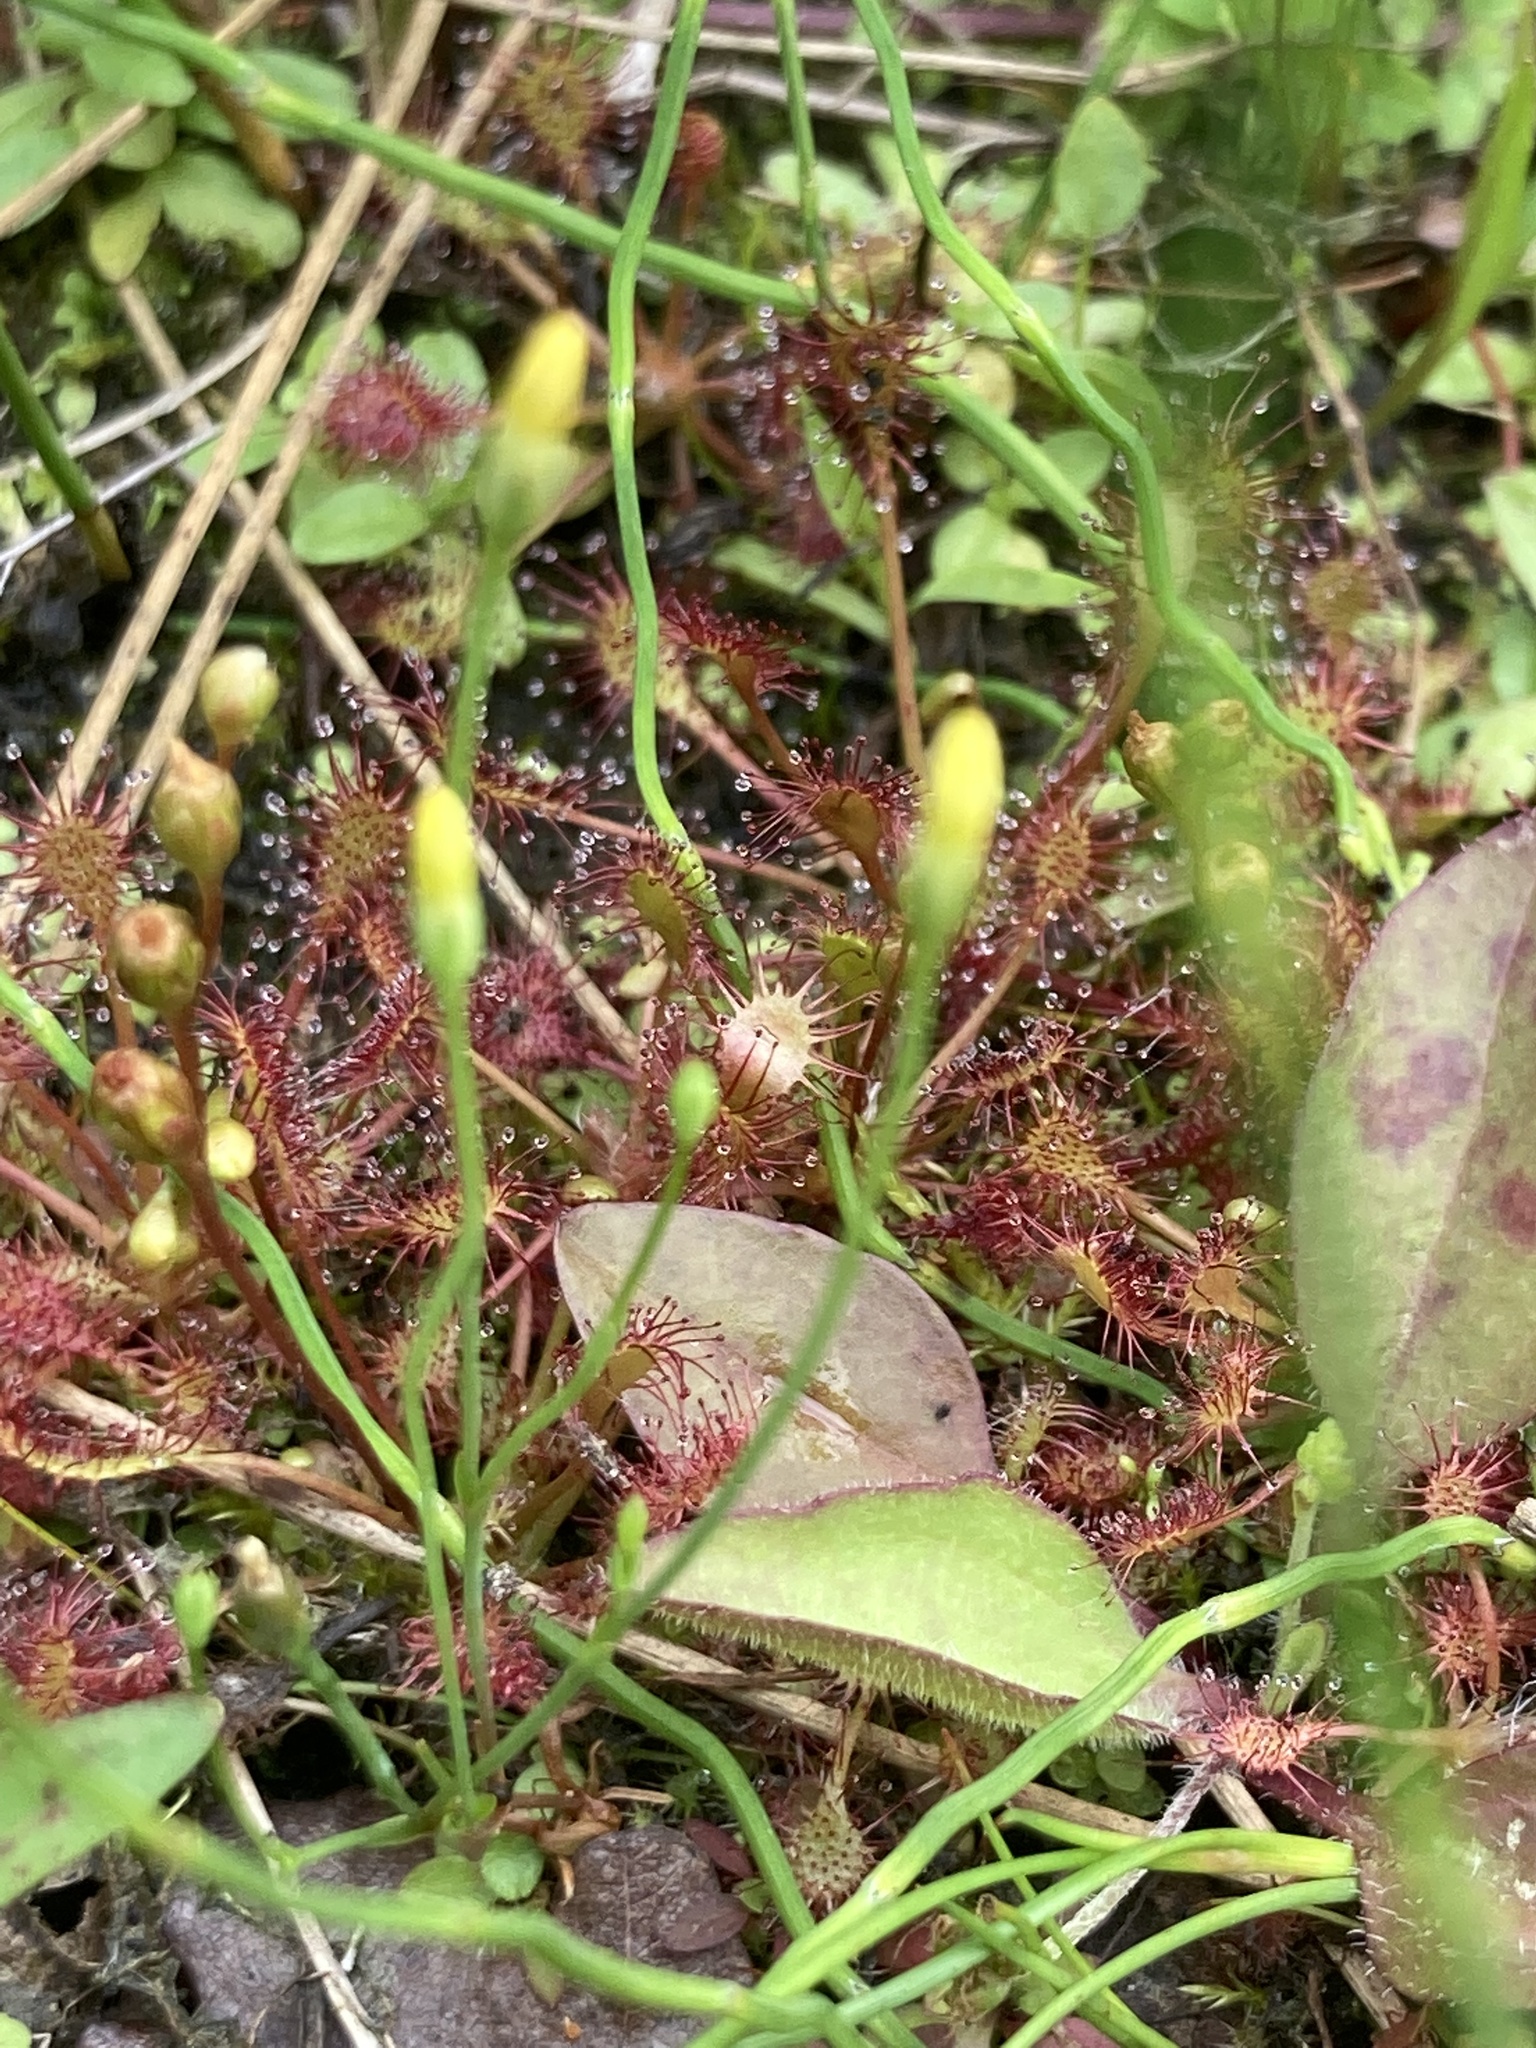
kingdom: Plantae
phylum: Tracheophyta
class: Magnoliopsida
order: Caryophyllales
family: Droseraceae
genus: Drosera
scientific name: Drosera intermedia
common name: Oblong-leaved sundew
